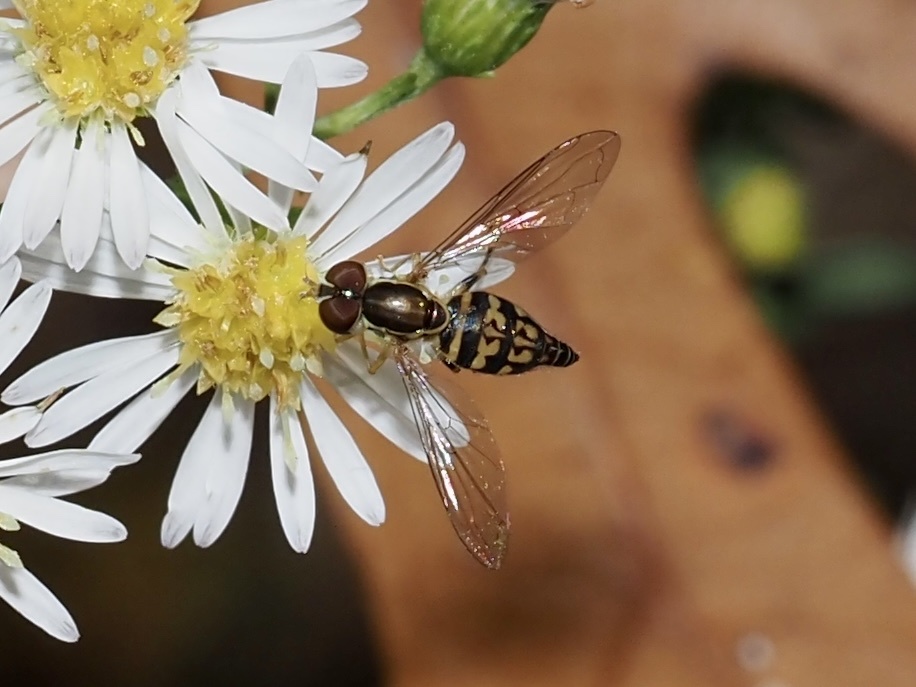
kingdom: Animalia
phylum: Arthropoda
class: Insecta
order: Diptera
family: Syrphidae
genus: Toxomerus
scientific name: Toxomerus geminatus
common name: Eastern calligrapher
